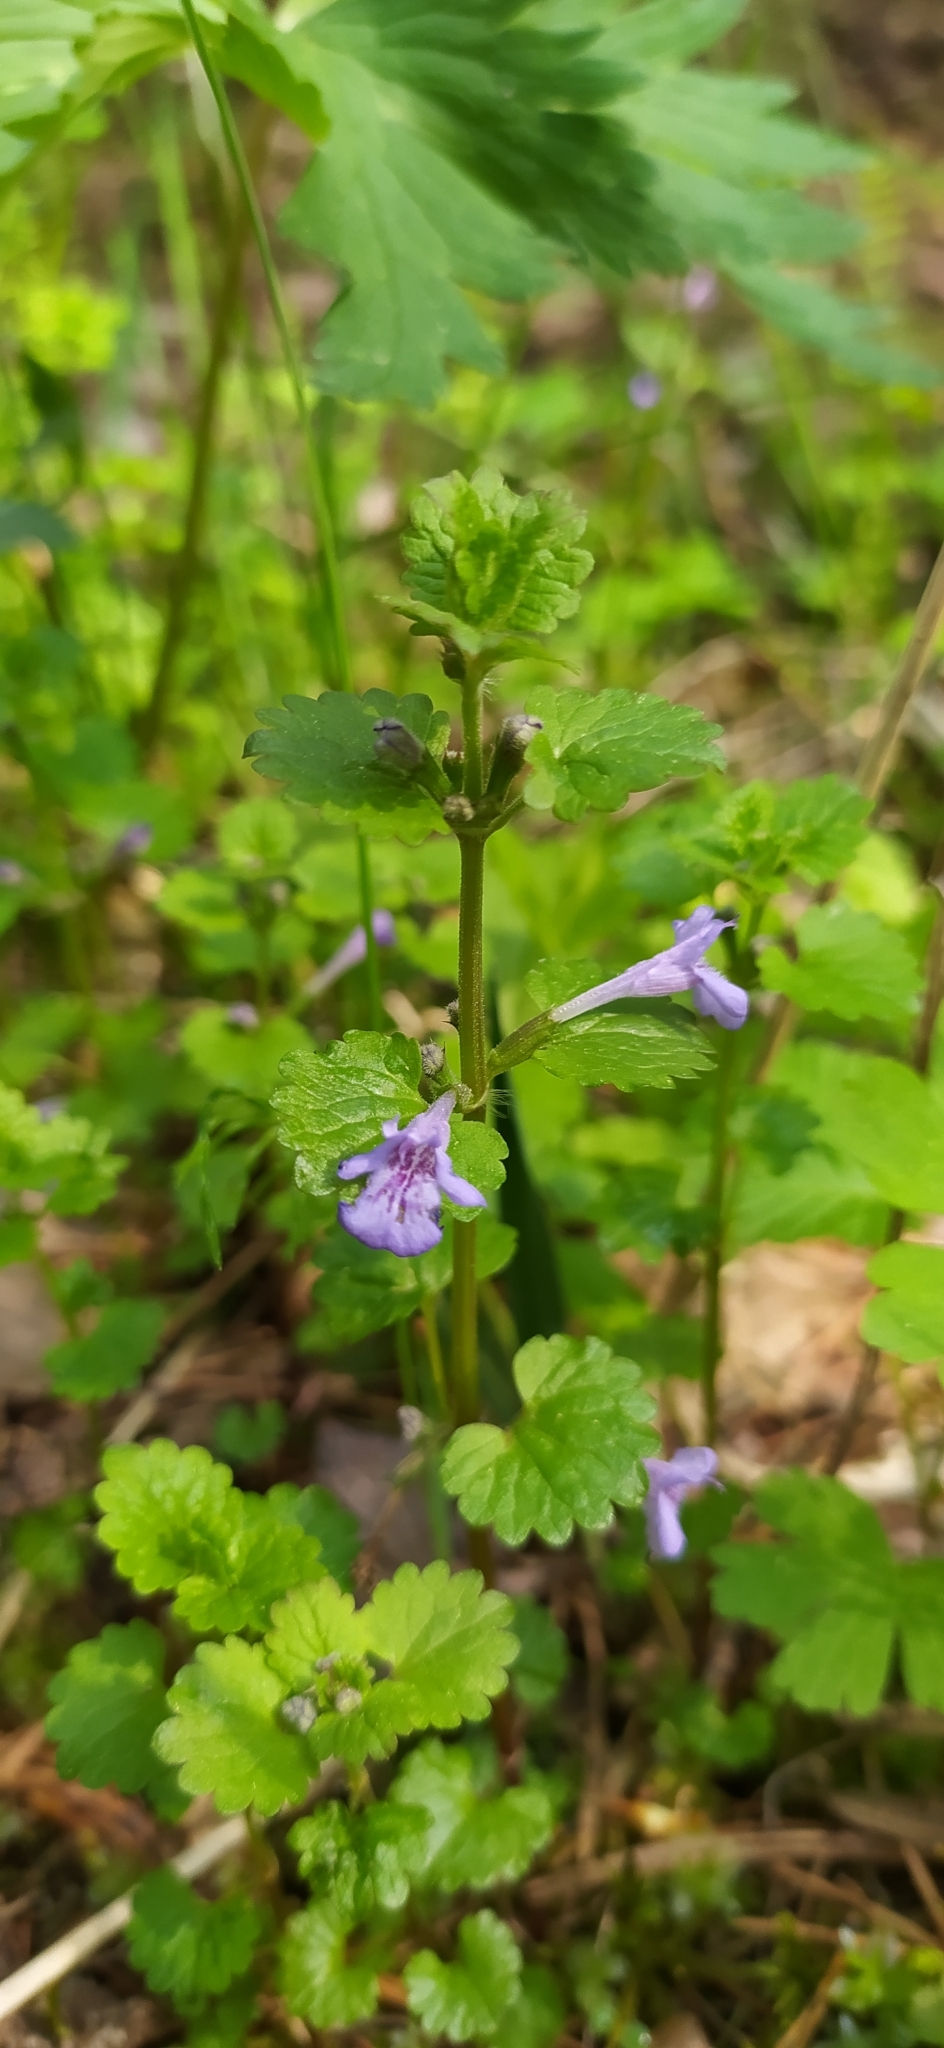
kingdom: Plantae
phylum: Tracheophyta
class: Magnoliopsida
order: Lamiales
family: Lamiaceae
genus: Glechoma
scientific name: Glechoma hederacea
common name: Ground ivy
